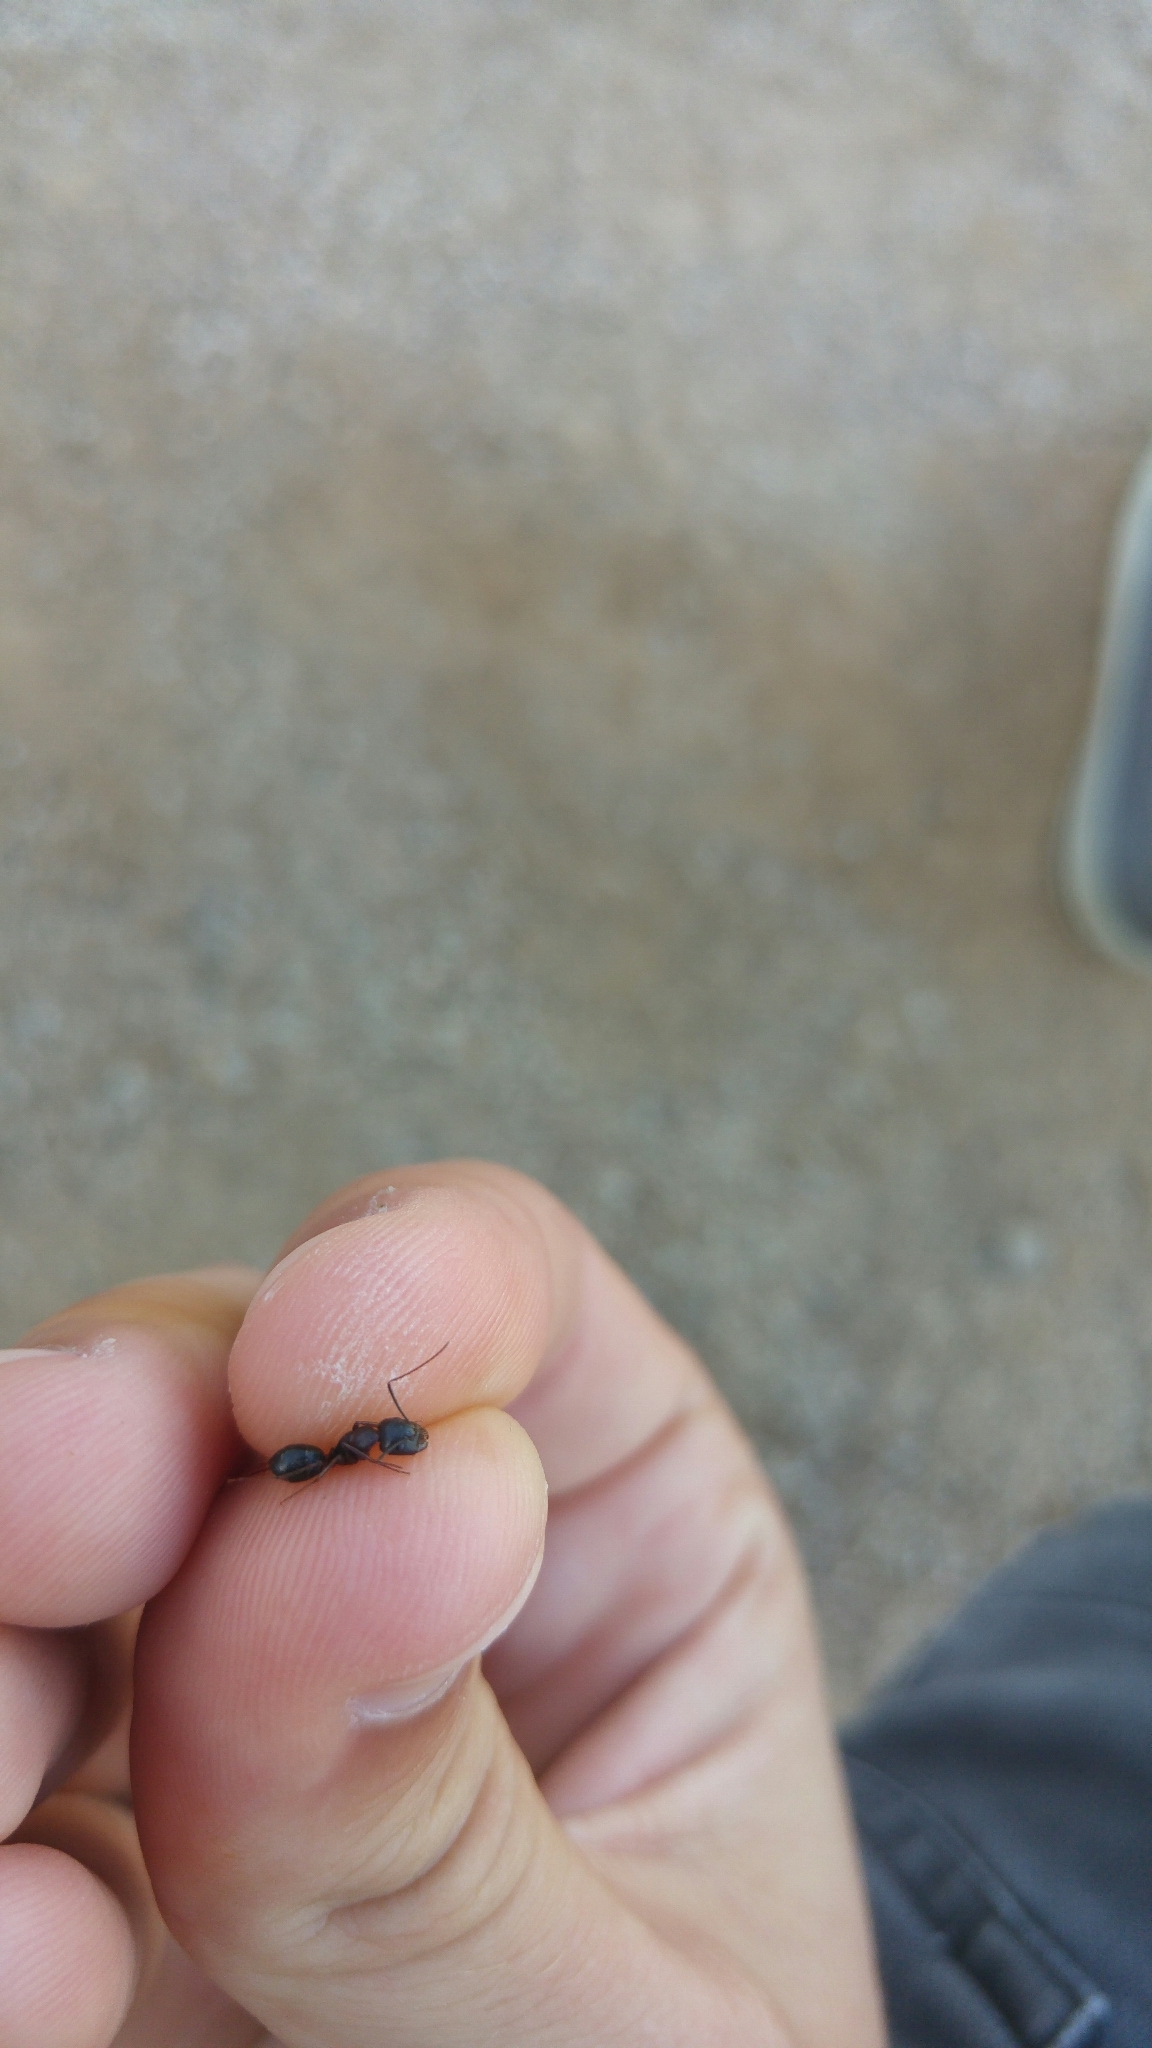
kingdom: Animalia
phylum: Arthropoda
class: Insecta
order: Hymenoptera
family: Formicidae
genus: Camponotus
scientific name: Camponotus sylvaticus
